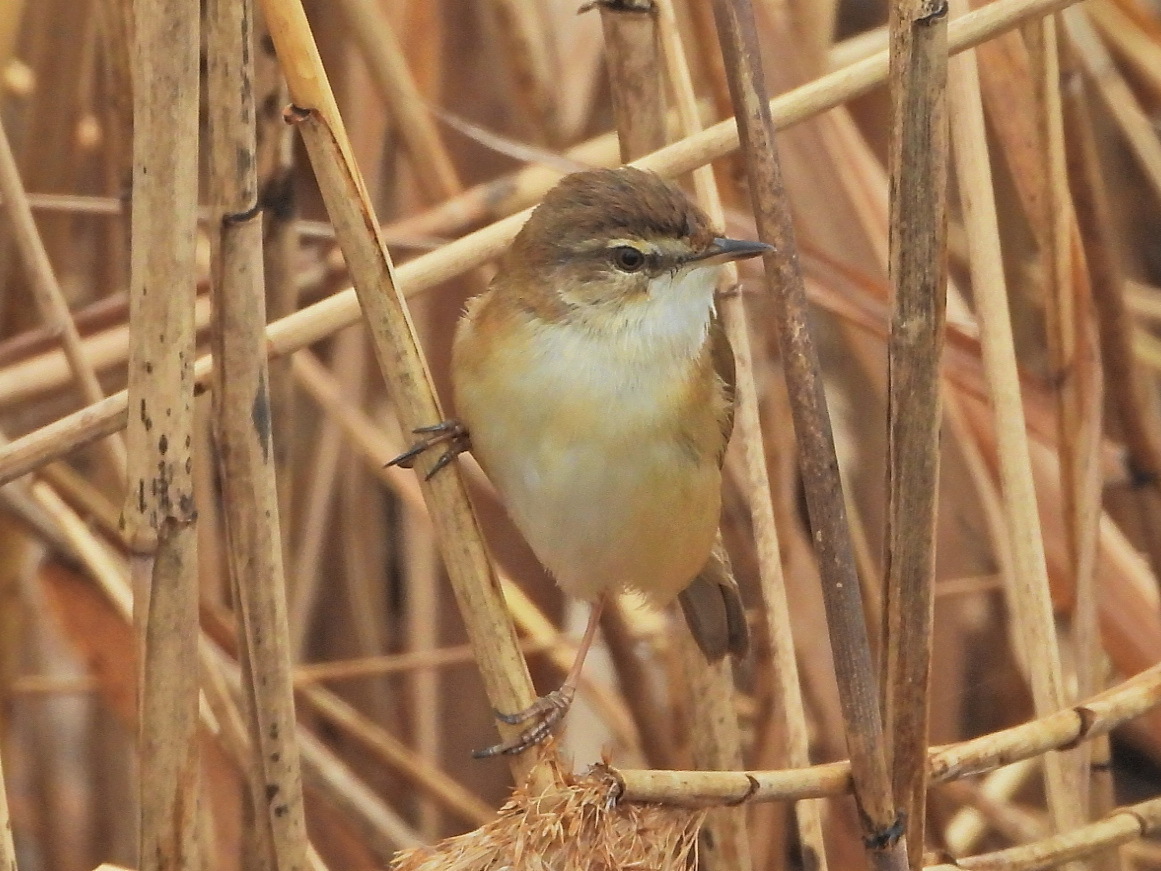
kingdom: Animalia
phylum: Chordata
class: Aves
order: Passeriformes
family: Acrocephalidae
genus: Acrocephalus
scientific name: Acrocephalus agricola
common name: Paddyfield warbler
